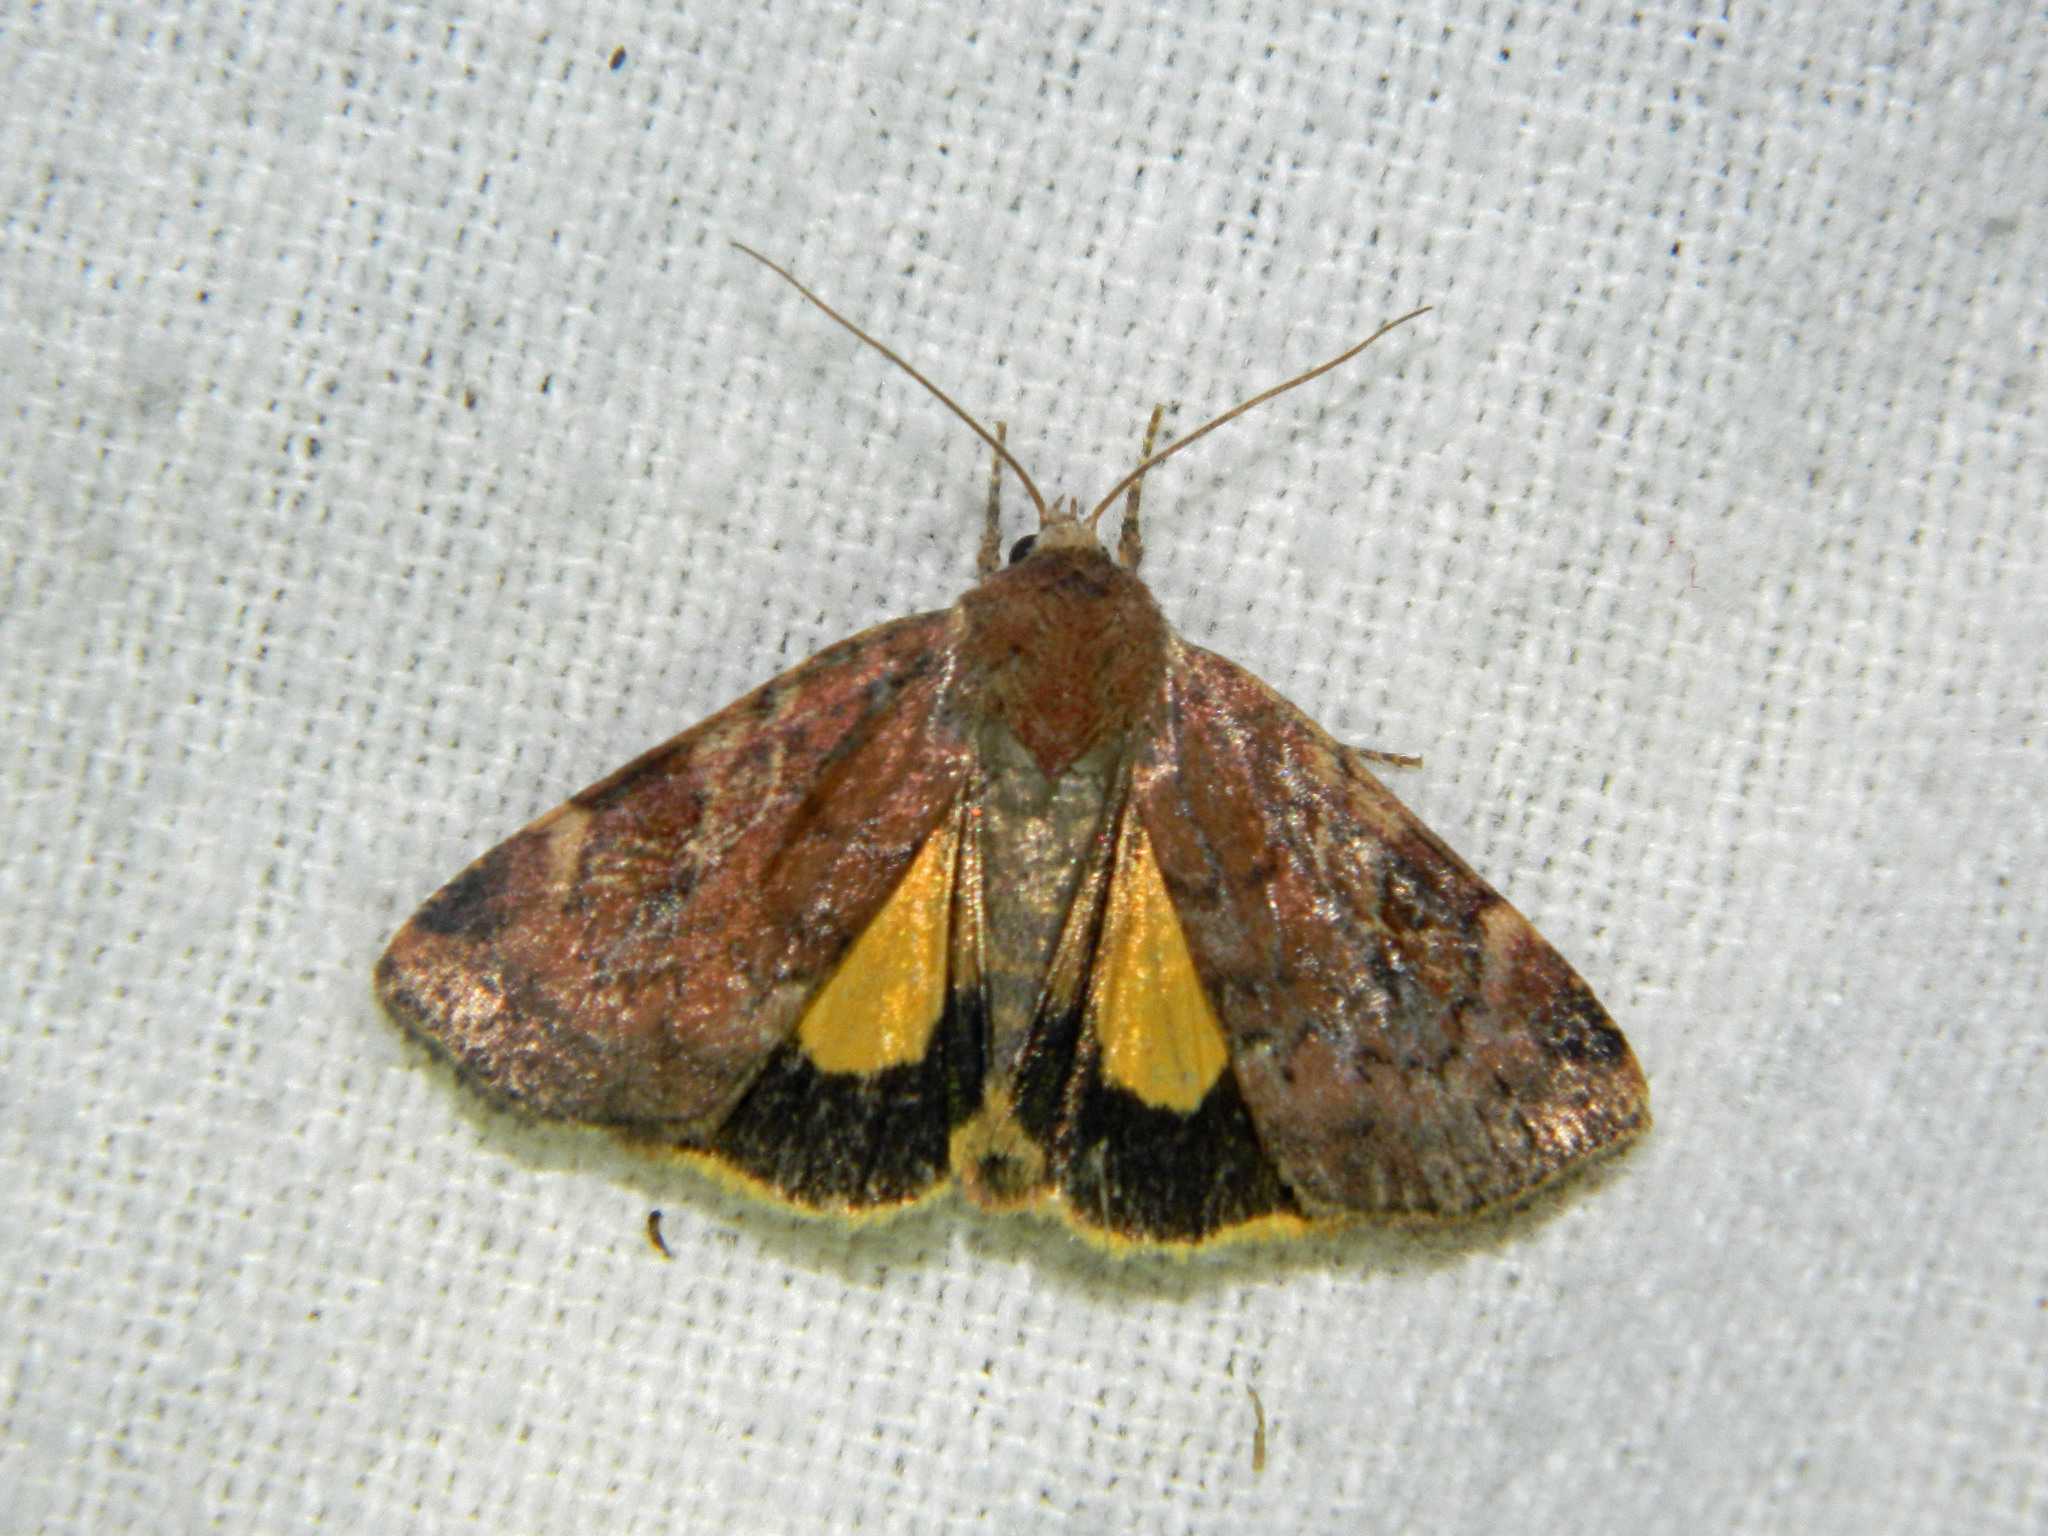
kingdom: Animalia
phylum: Arthropoda
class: Insecta
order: Lepidoptera
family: Noctuidae
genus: Cryptocala
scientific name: Cryptocala acadiensis
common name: Catocaline dart
